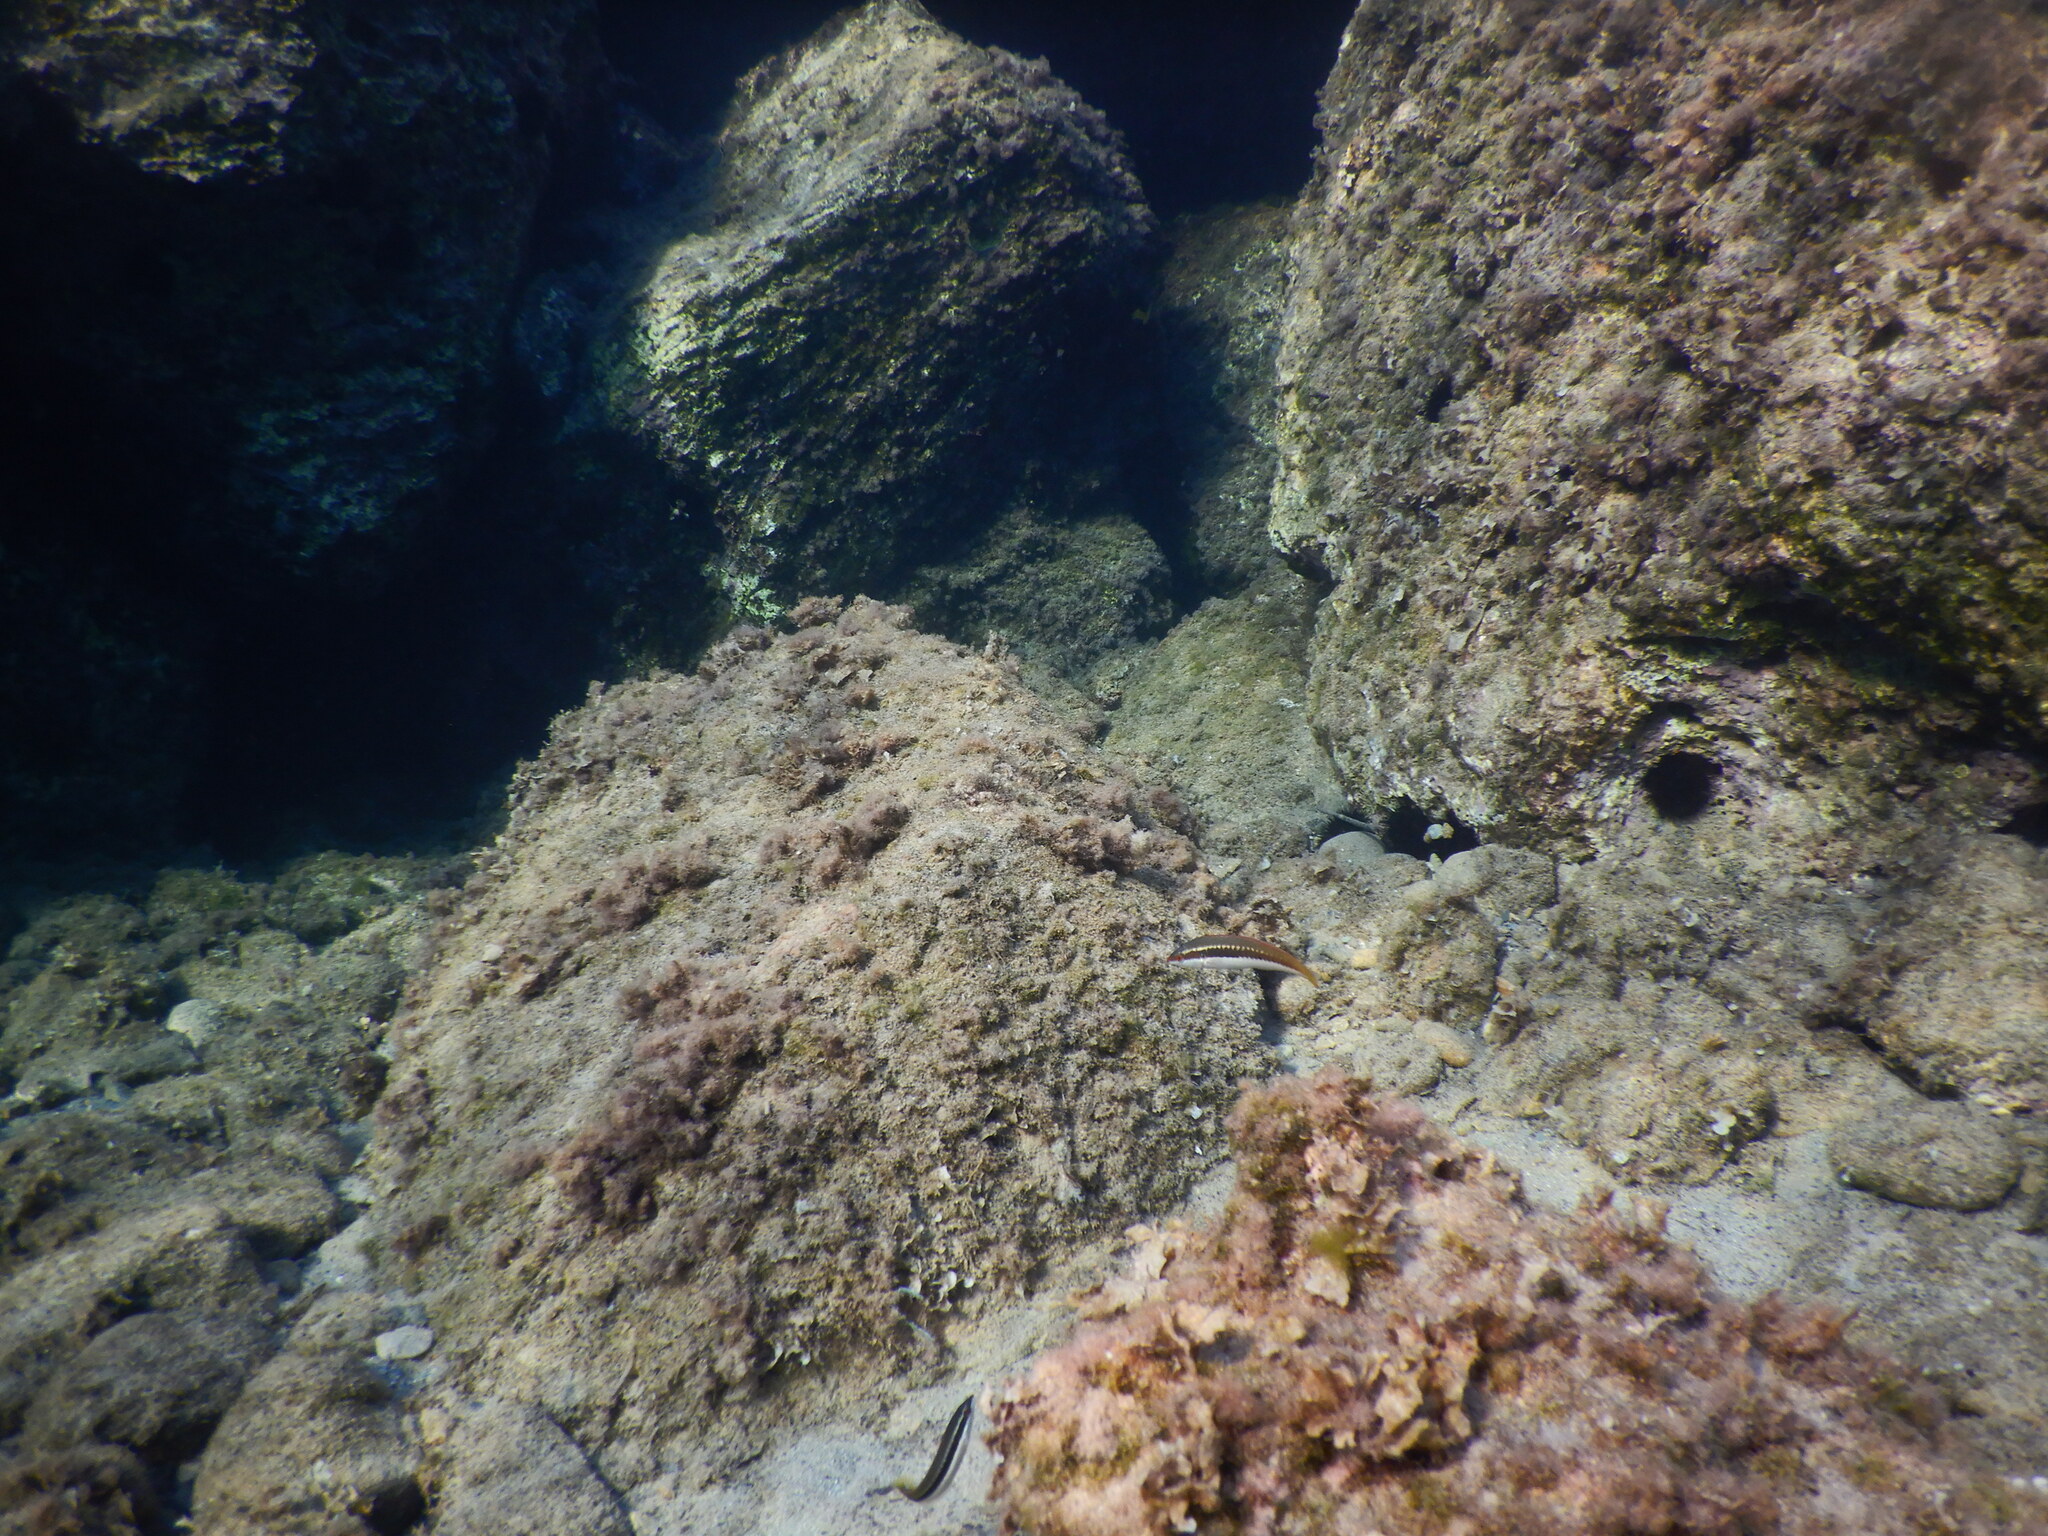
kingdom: Animalia
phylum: Chordata
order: Perciformes
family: Labridae
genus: Coris
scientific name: Coris julis
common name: Rainbow wrasse
